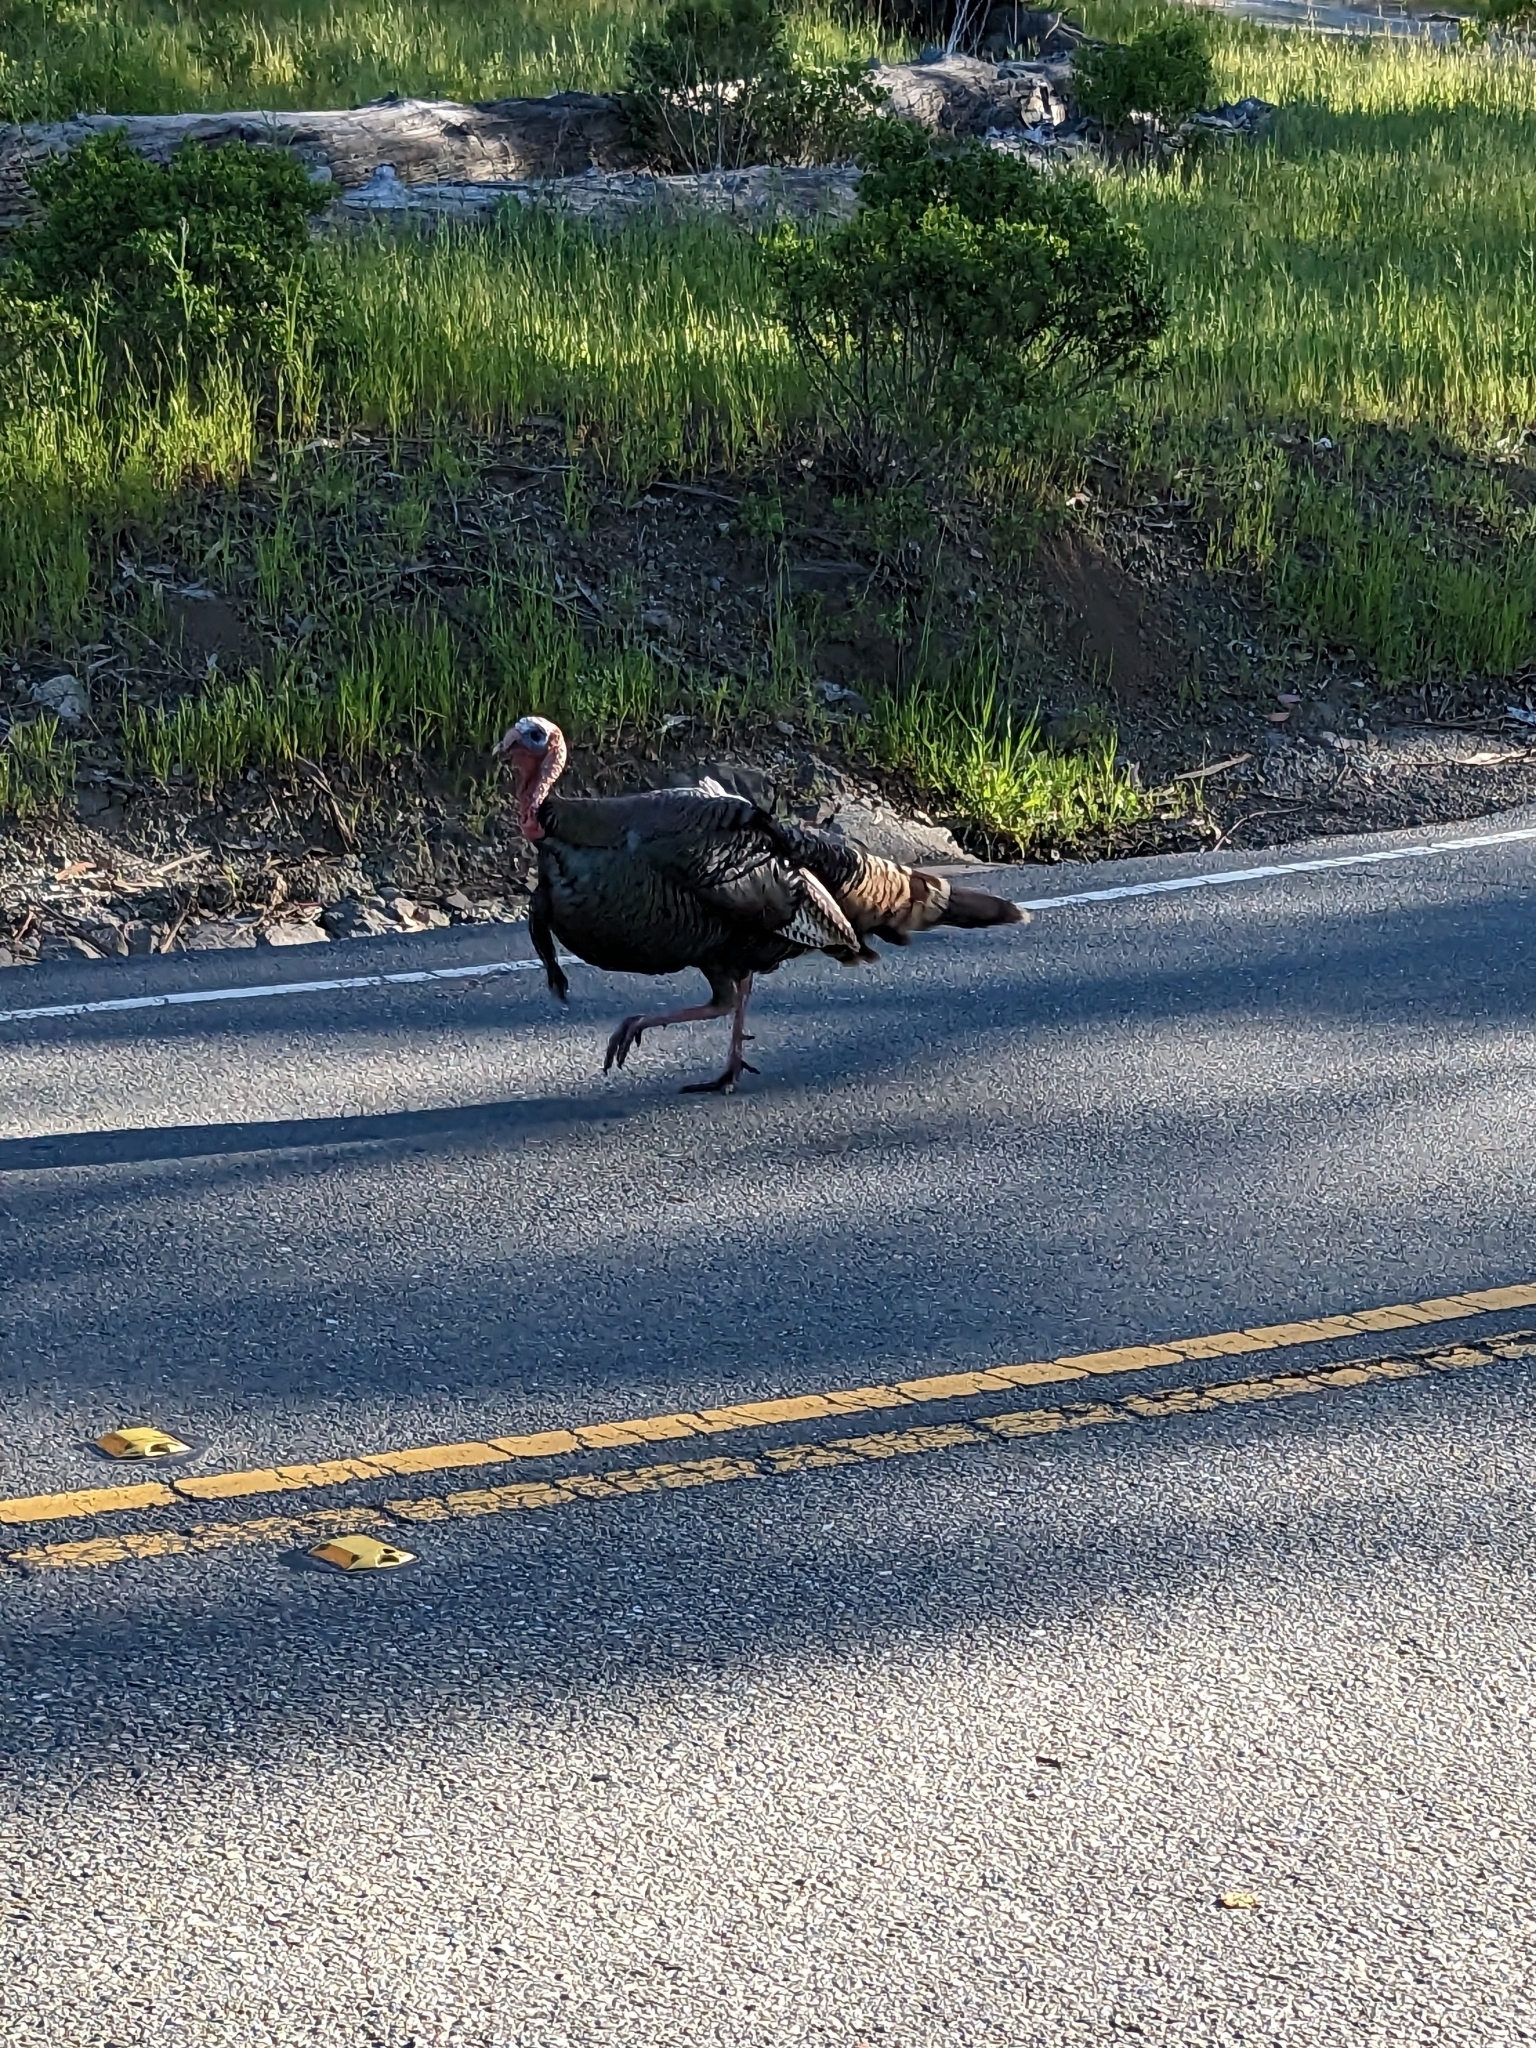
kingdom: Animalia
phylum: Chordata
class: Aves
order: Galliformes
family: Phasianidae
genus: Meleagris
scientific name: Meleagris gallopavo
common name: Wild turkey
